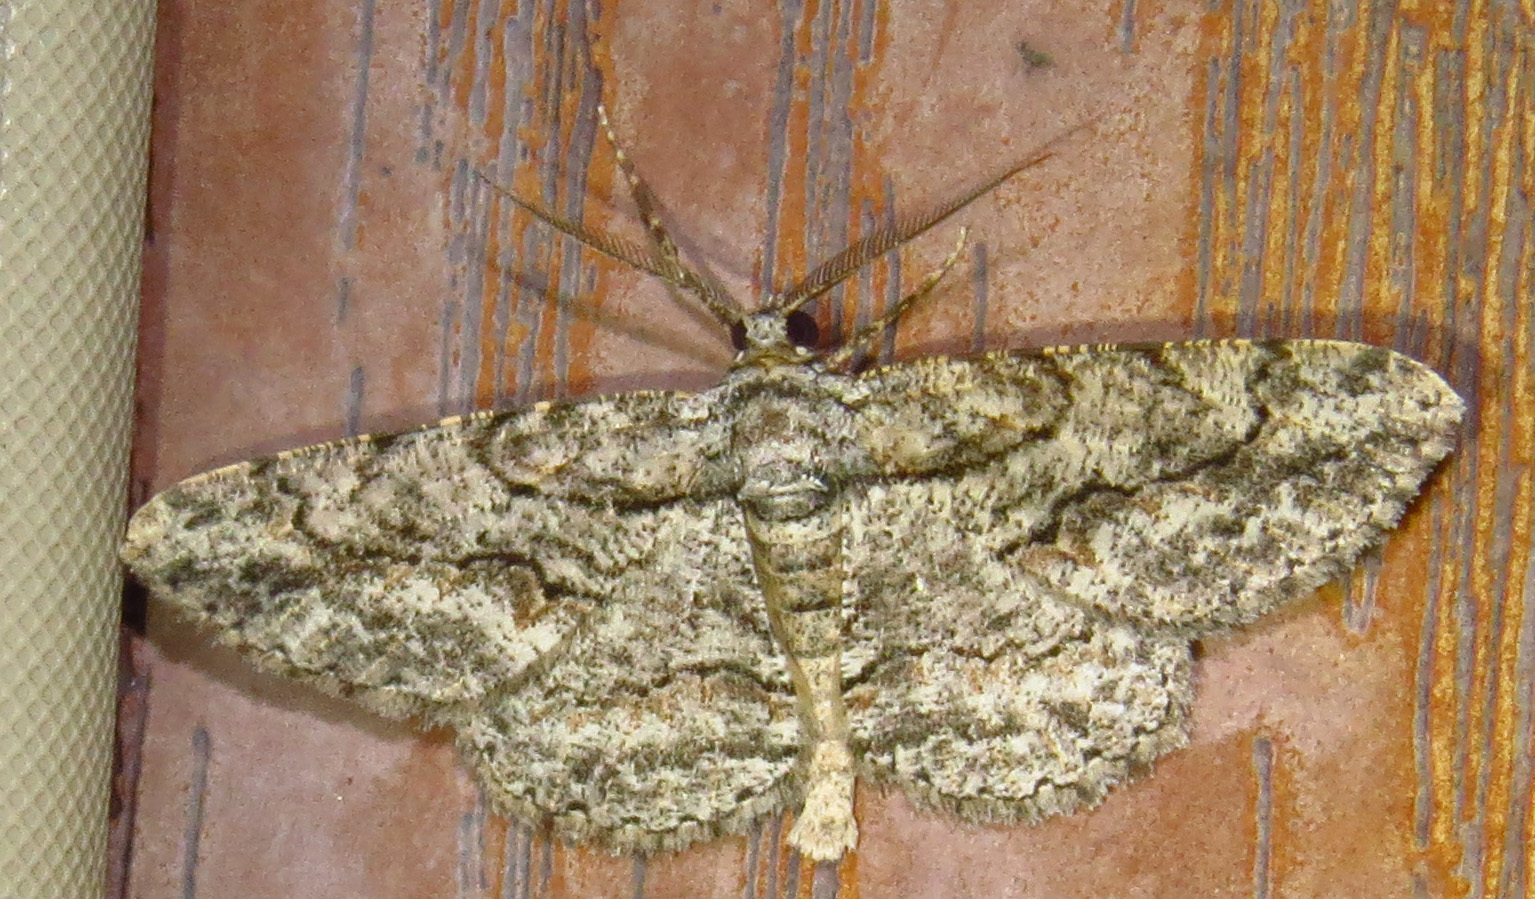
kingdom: Animalia
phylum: Arthropoda
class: Insecta
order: Lepidoptera
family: Geometridae
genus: Anavitrinella
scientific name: Anavitrinella pampinaria
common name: Common gray
